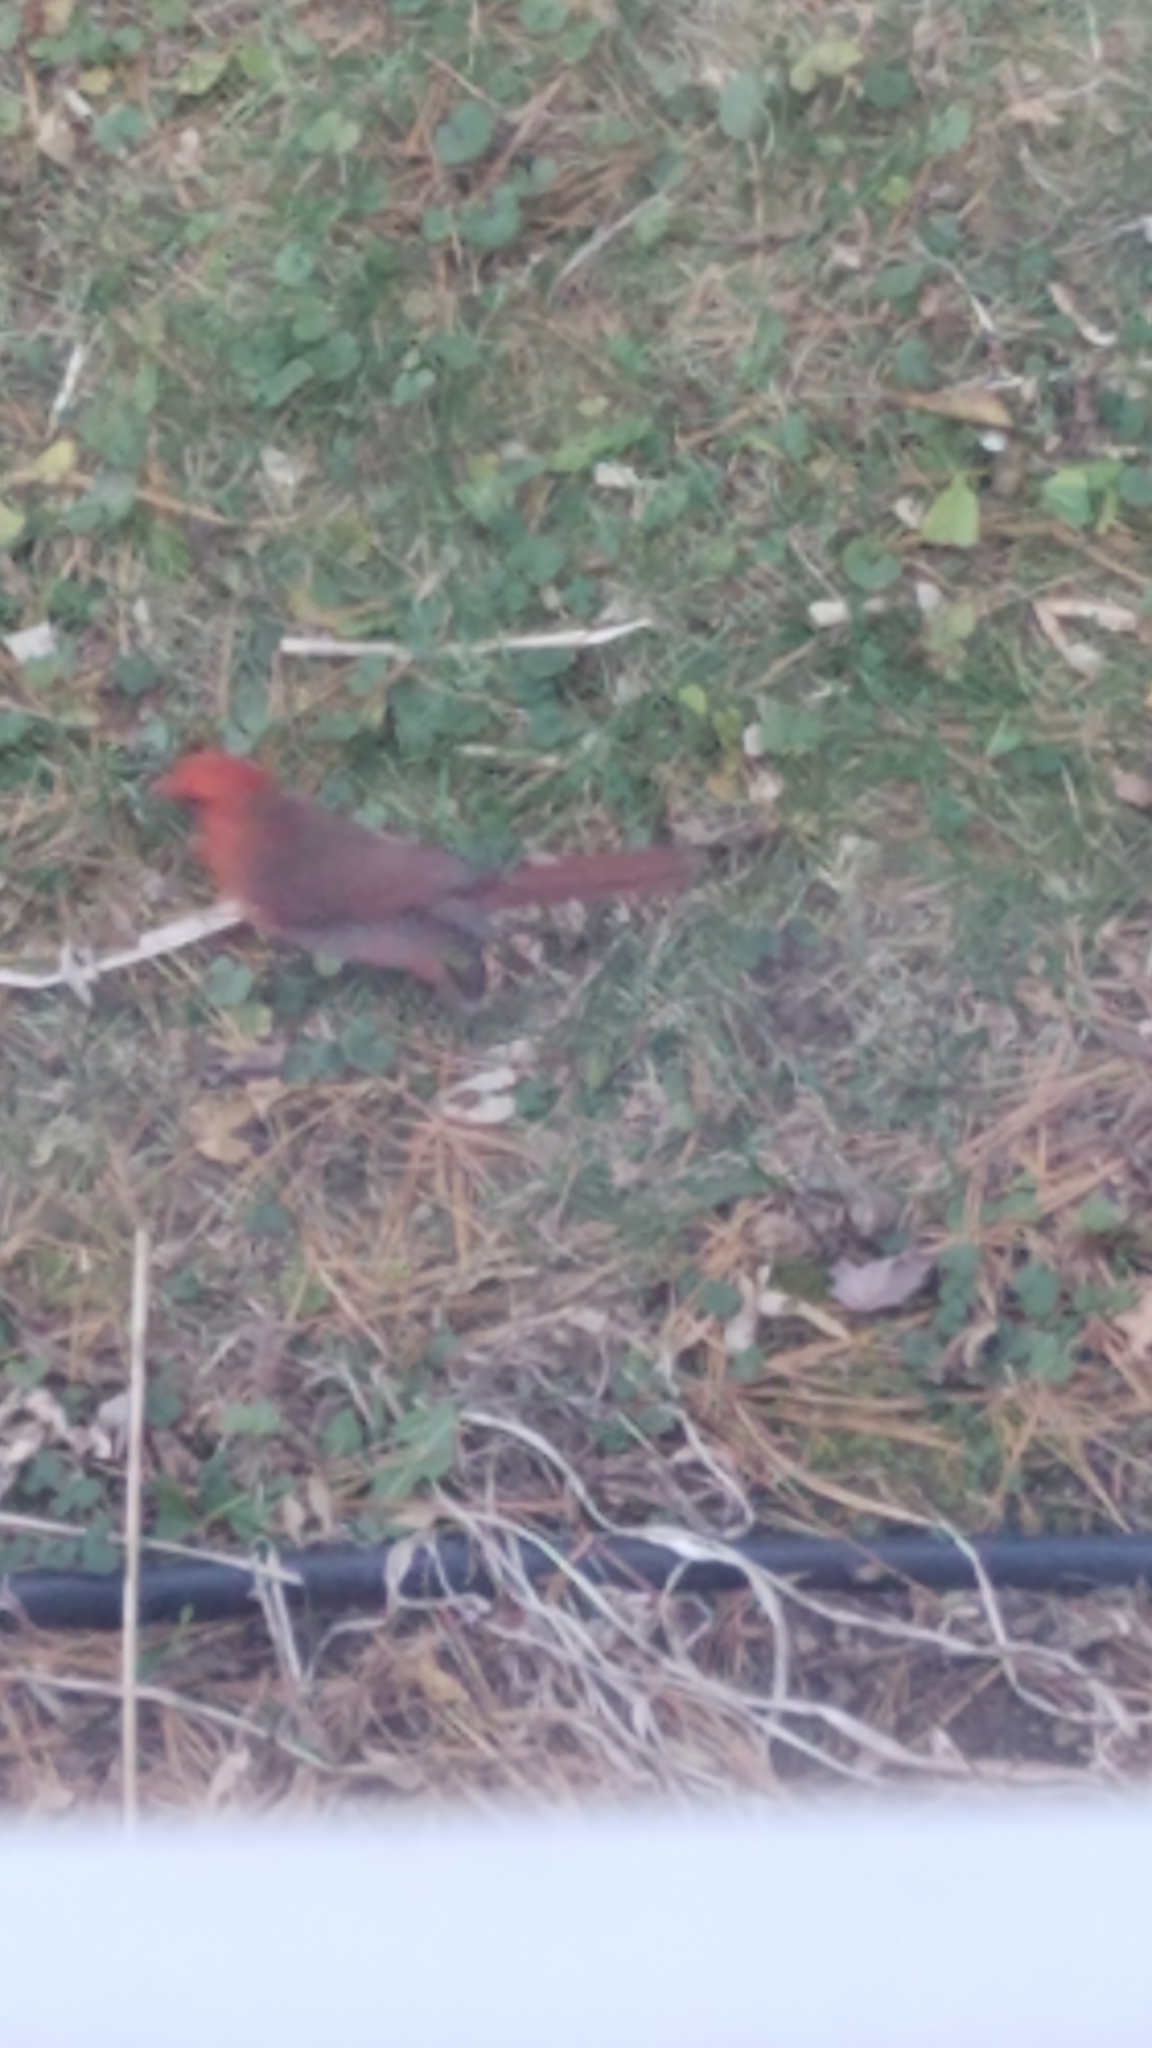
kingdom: Animalia
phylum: Chordata
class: Aves
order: Passeriformes
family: Cardinalidae
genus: Cardinalis
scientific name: Cardinalis cardinalis
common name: Northern cardinal
